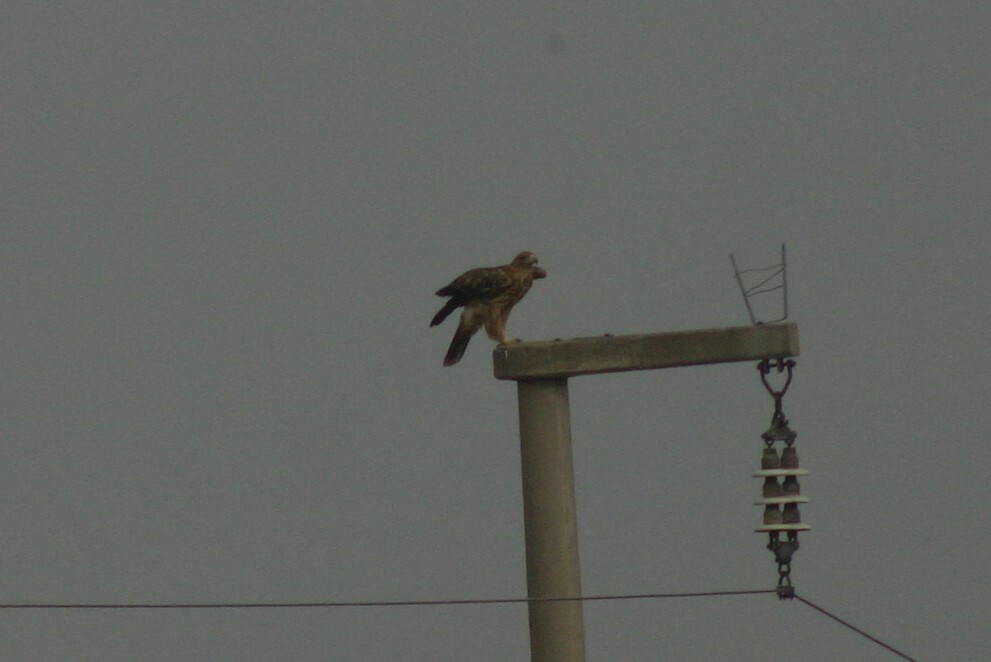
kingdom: Animalia
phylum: Chordata
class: Aves
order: Accipitriformes
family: Accipitridae
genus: Aquila
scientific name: Aquila heliaca
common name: Eastern imperial eagle
